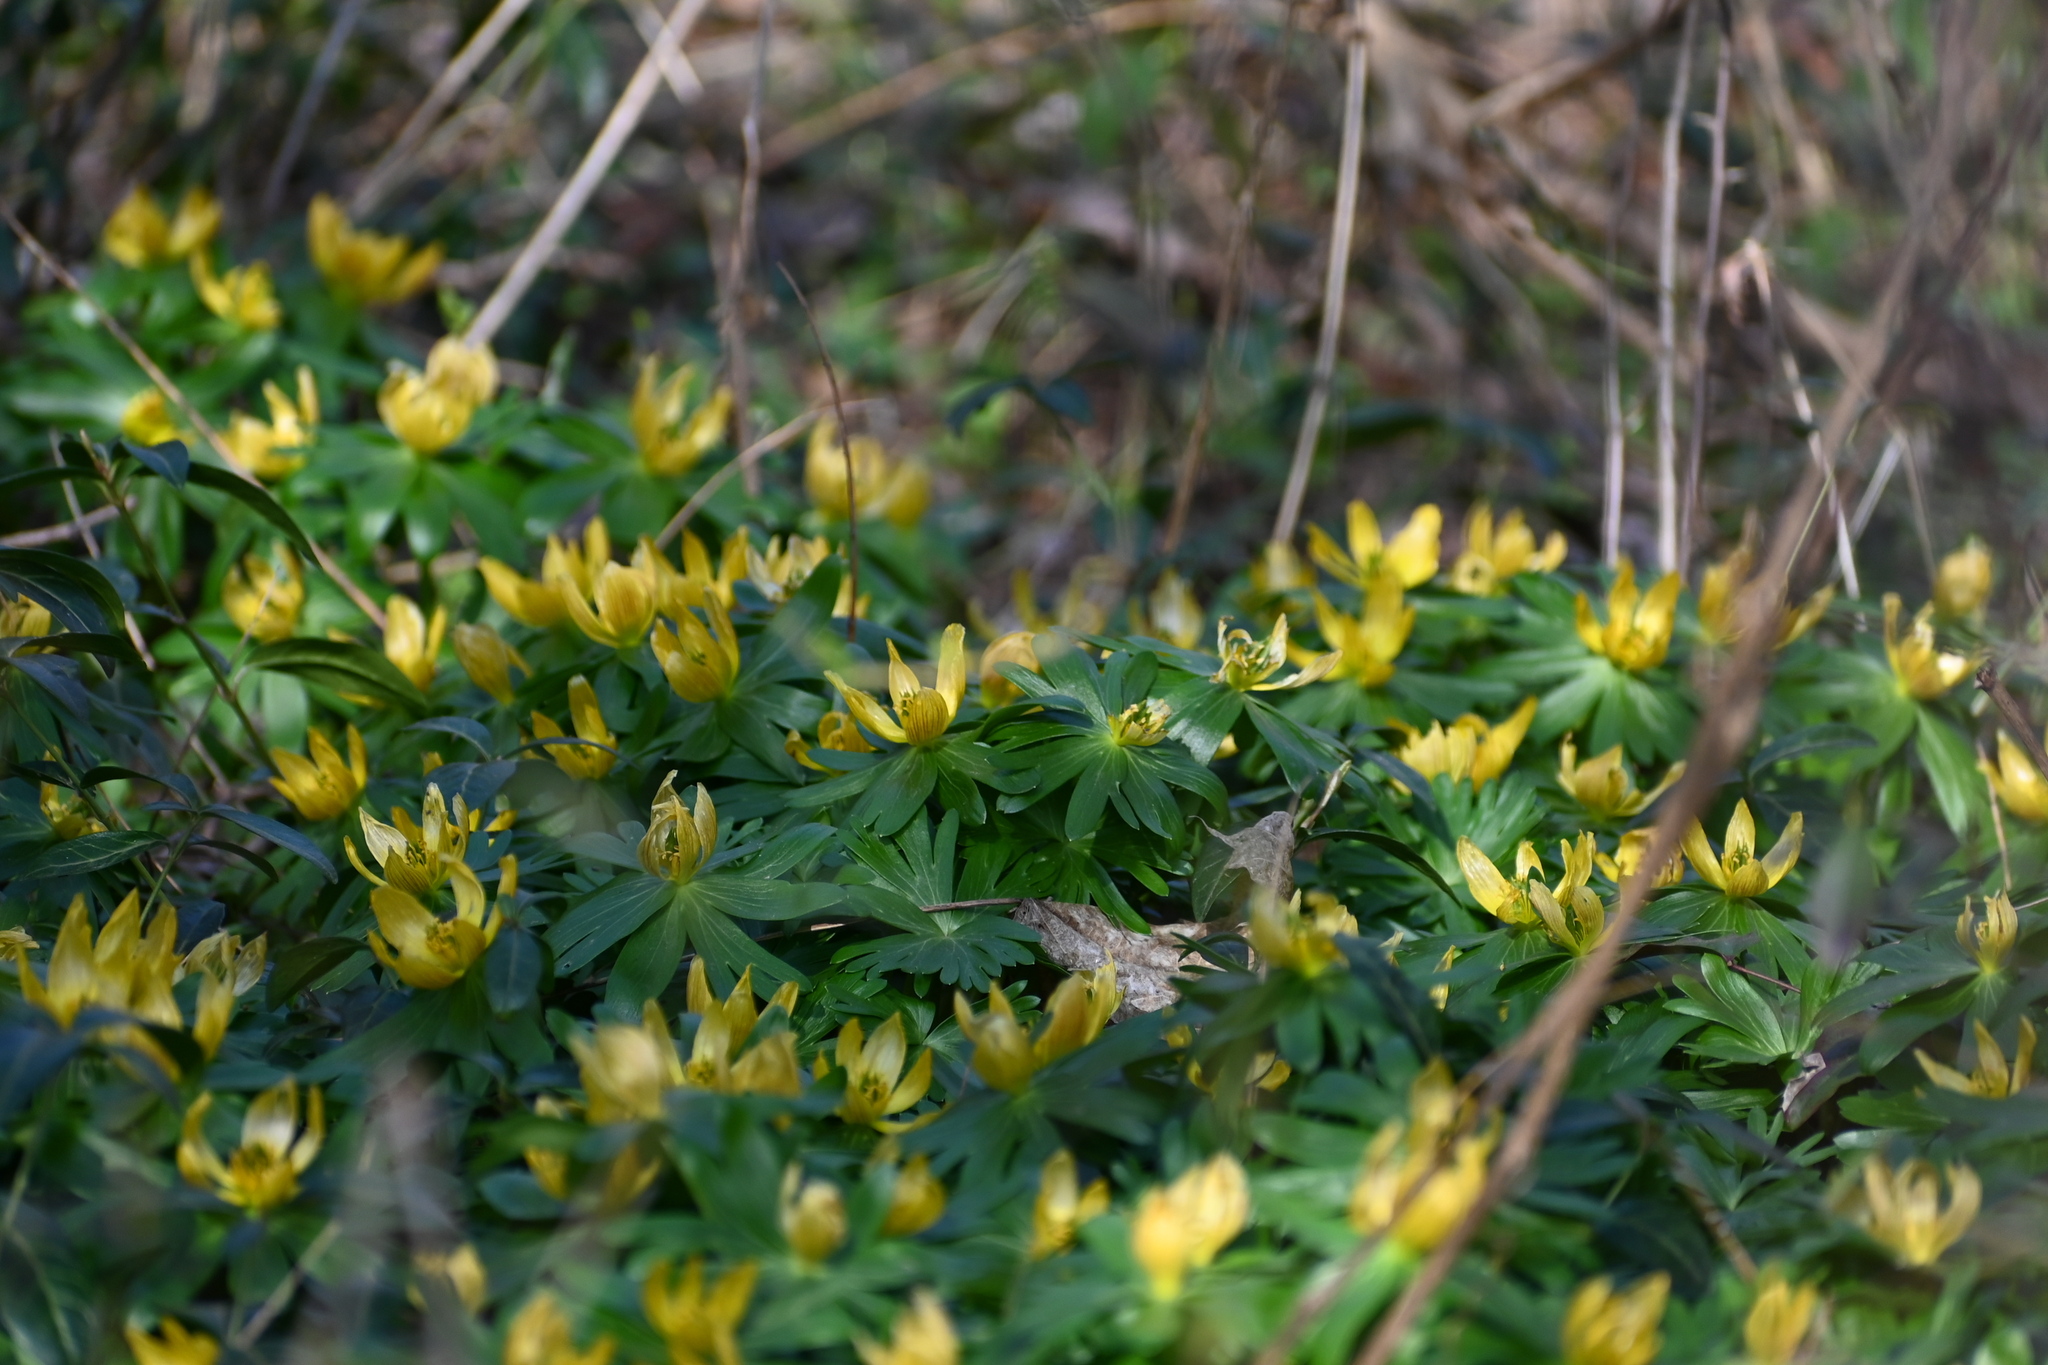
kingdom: Plantae
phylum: Tracheophyta
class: Magnoliopsida
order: Ranunculales
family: Ranunculaceae
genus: Eranthis
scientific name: Eranthis hyemalis
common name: Winter aconite
